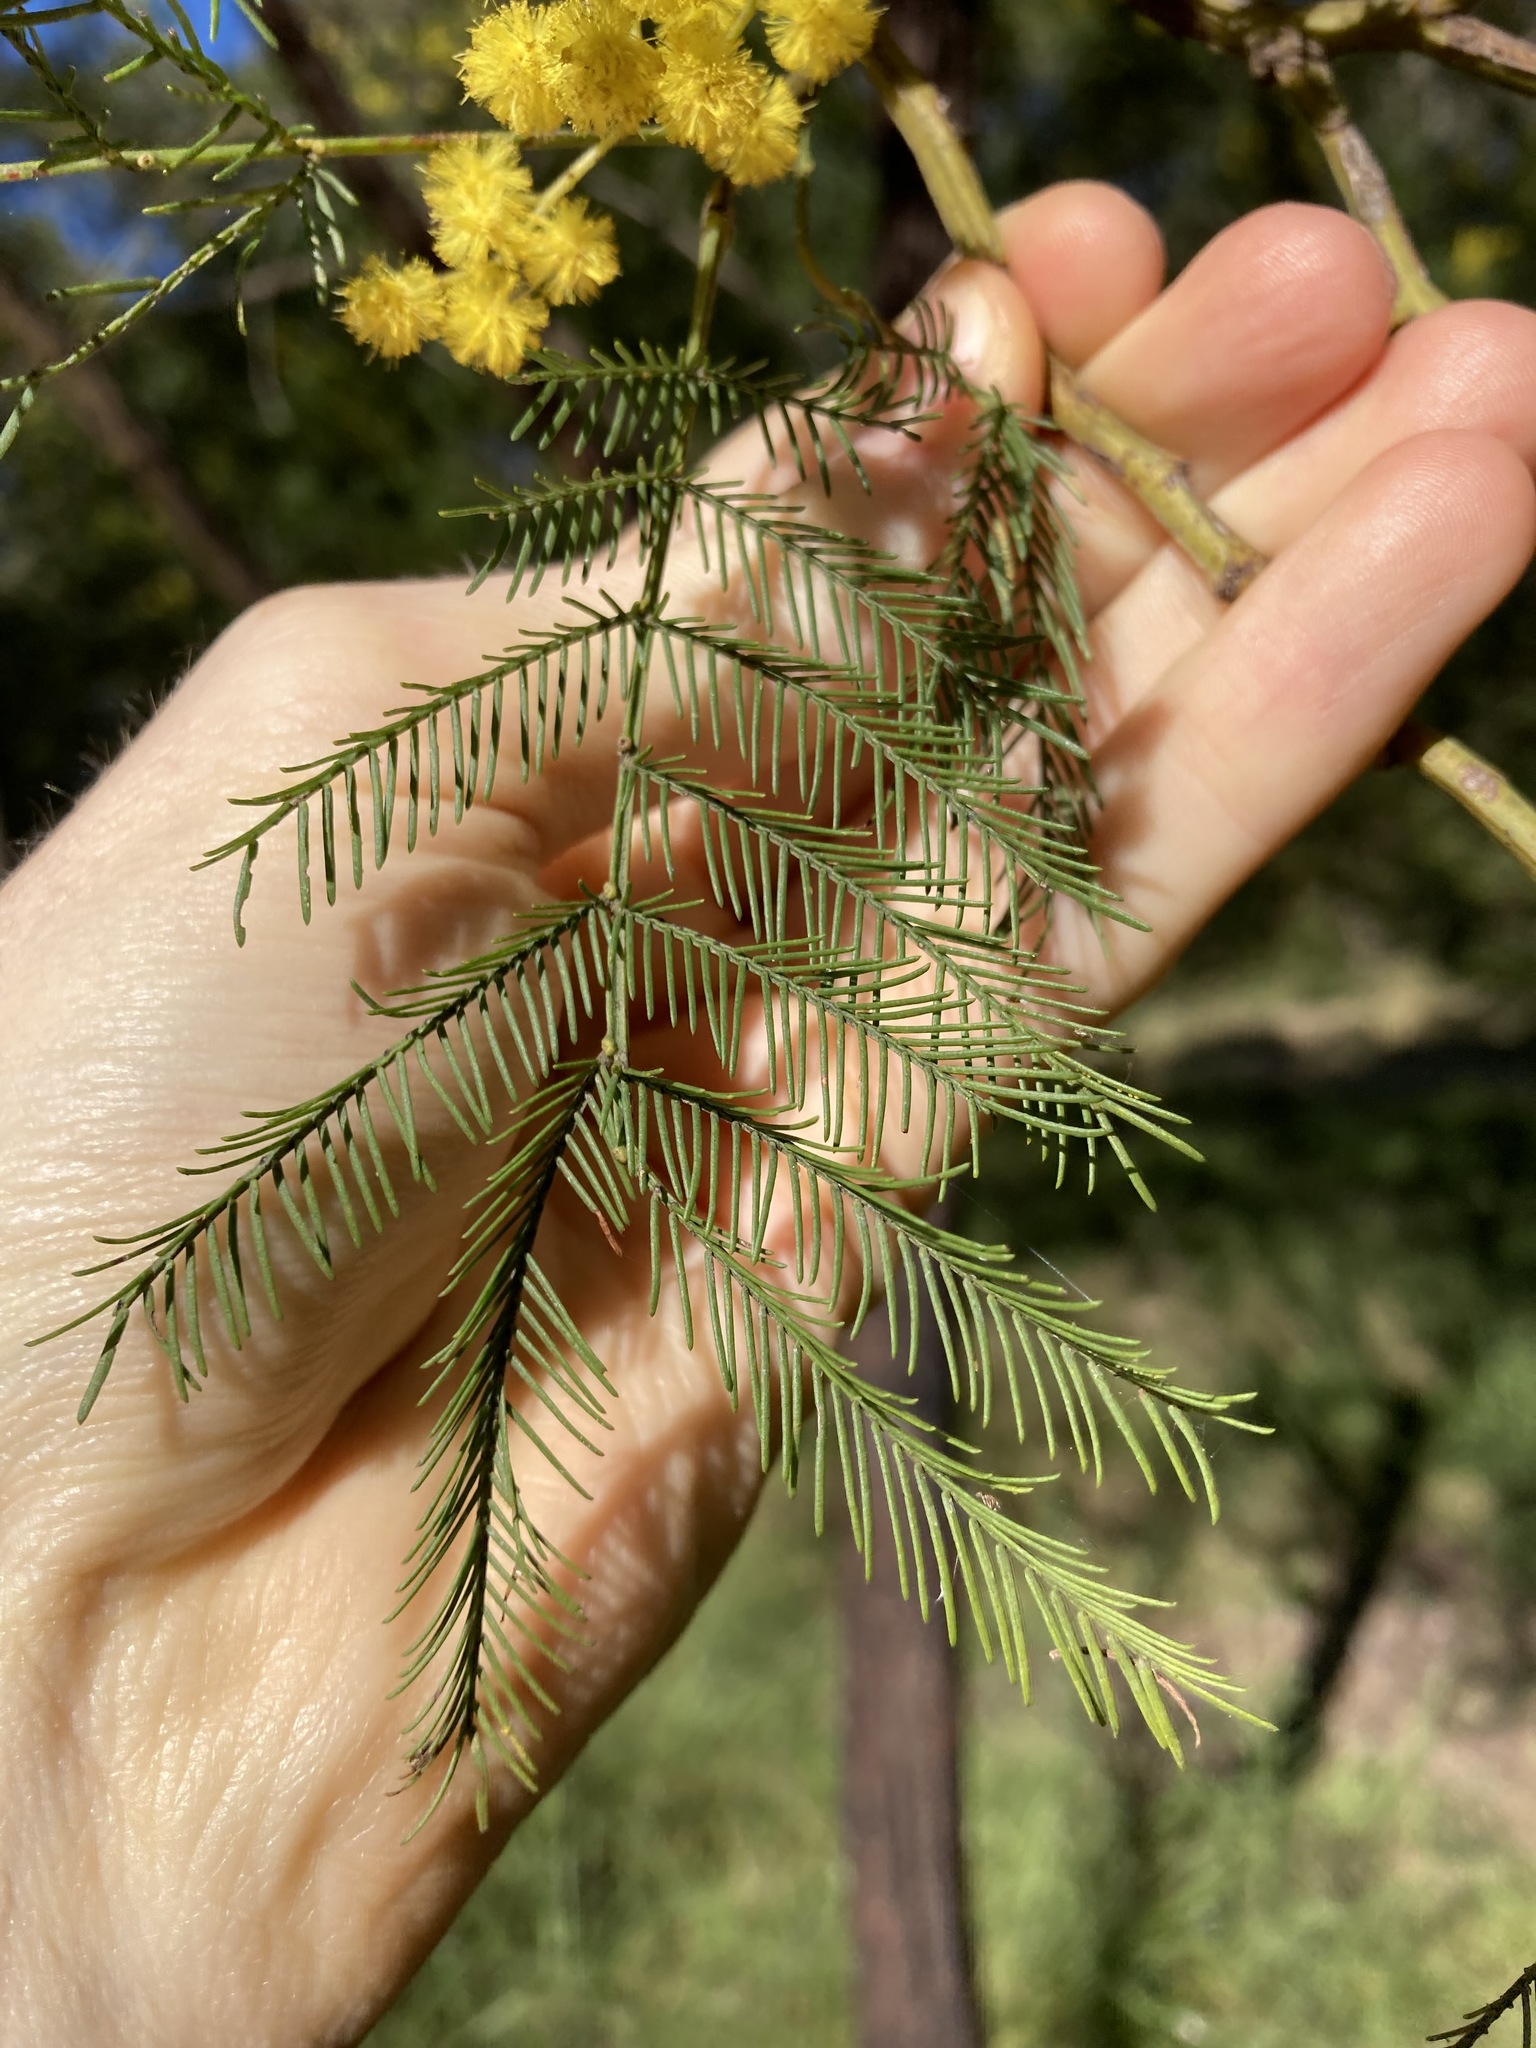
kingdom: Plantae
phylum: Tracheophyta
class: Magnoliopsida
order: Fabales
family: Fabaceae
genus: Acacia
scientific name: Acacia decurrens
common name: Green wattle
